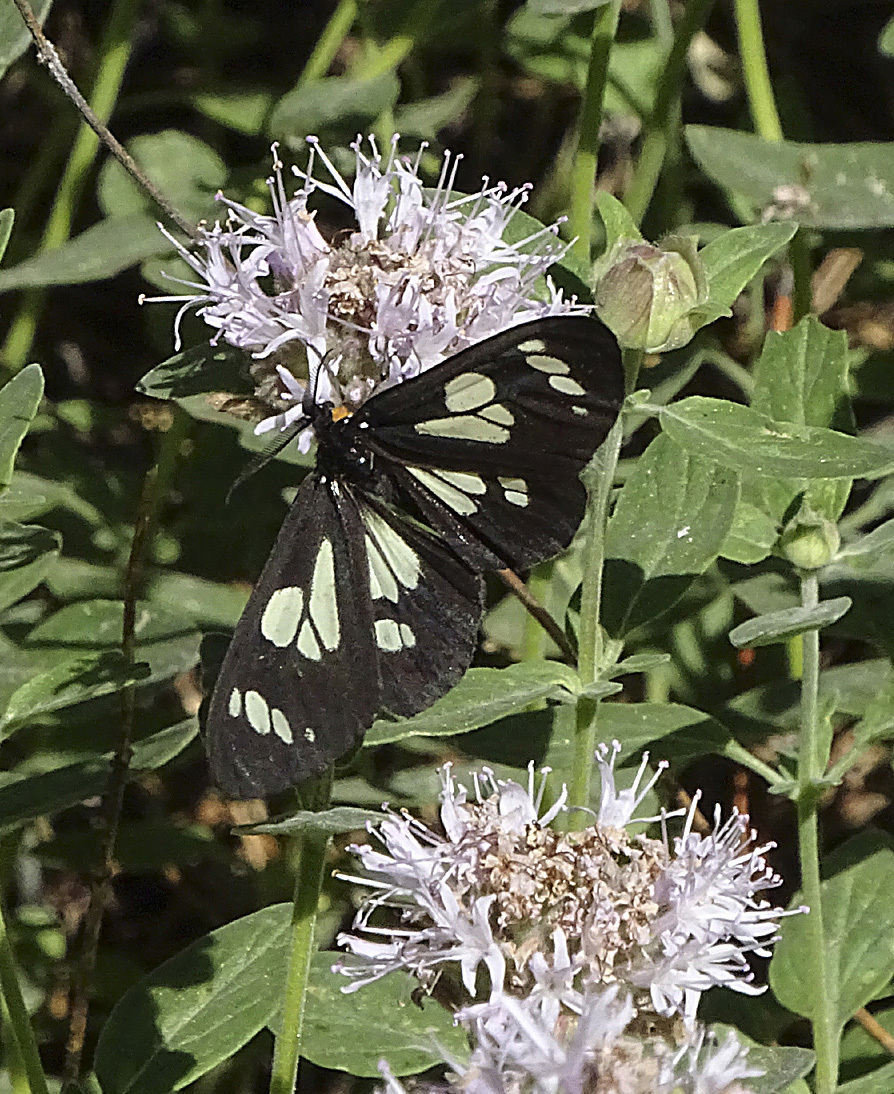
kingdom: Animalia
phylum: Arthropoda
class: Insecta
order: Lepidoptera
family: Erebidae
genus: Gnophaela
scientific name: Gnophaela latipennis
